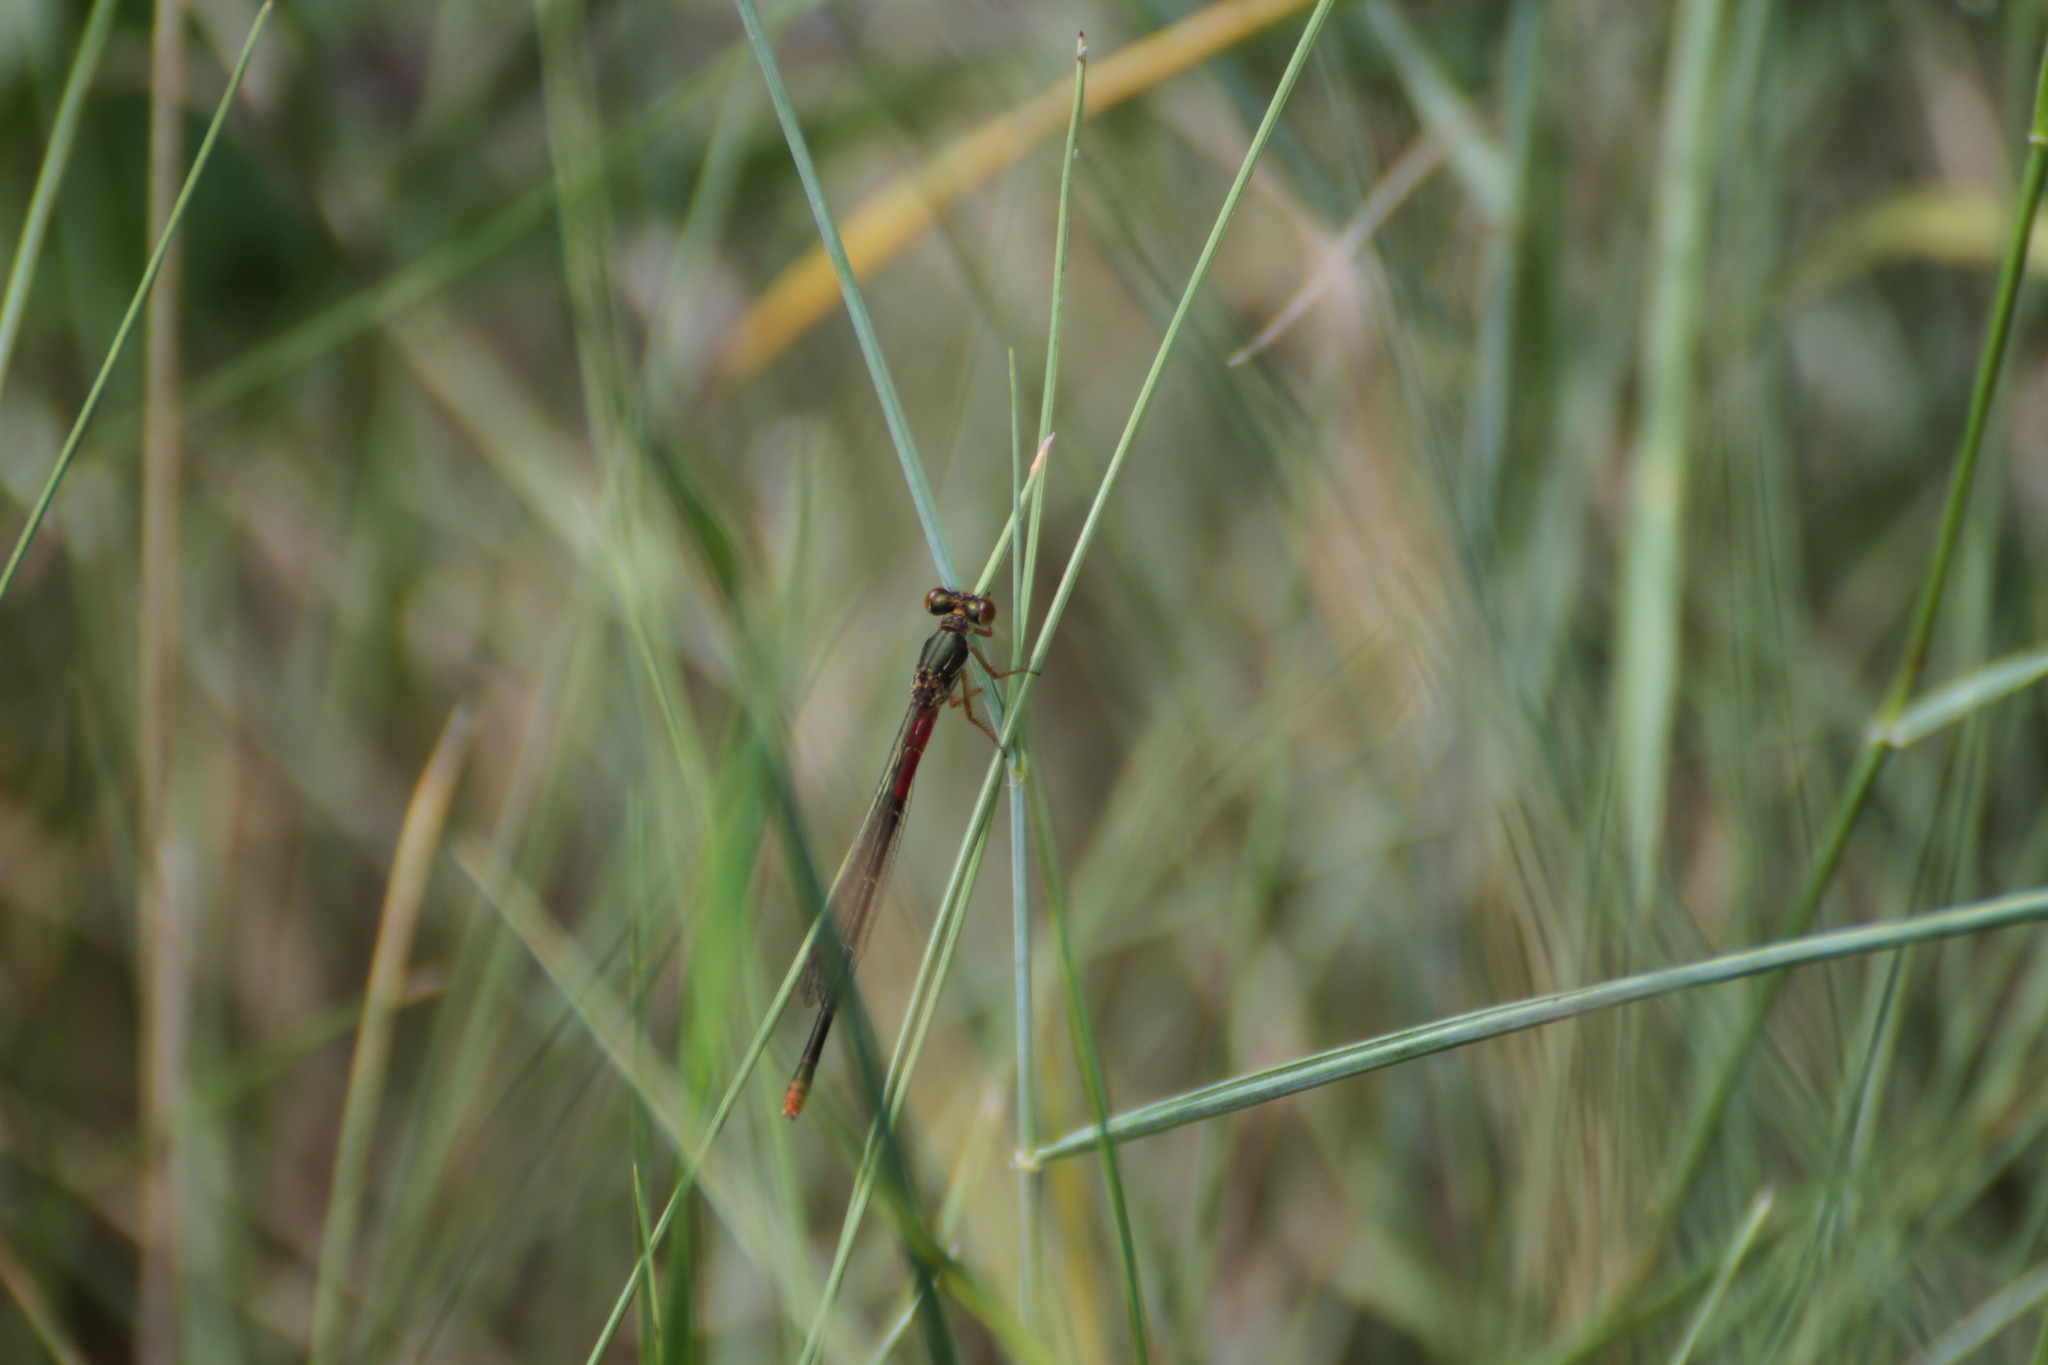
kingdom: Animalia
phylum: Arthropoda
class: Insecta
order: Odonata
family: Coenagrionidae
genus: Ceriagrion
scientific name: Ceriagrion tenellum
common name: Small red damselfly
